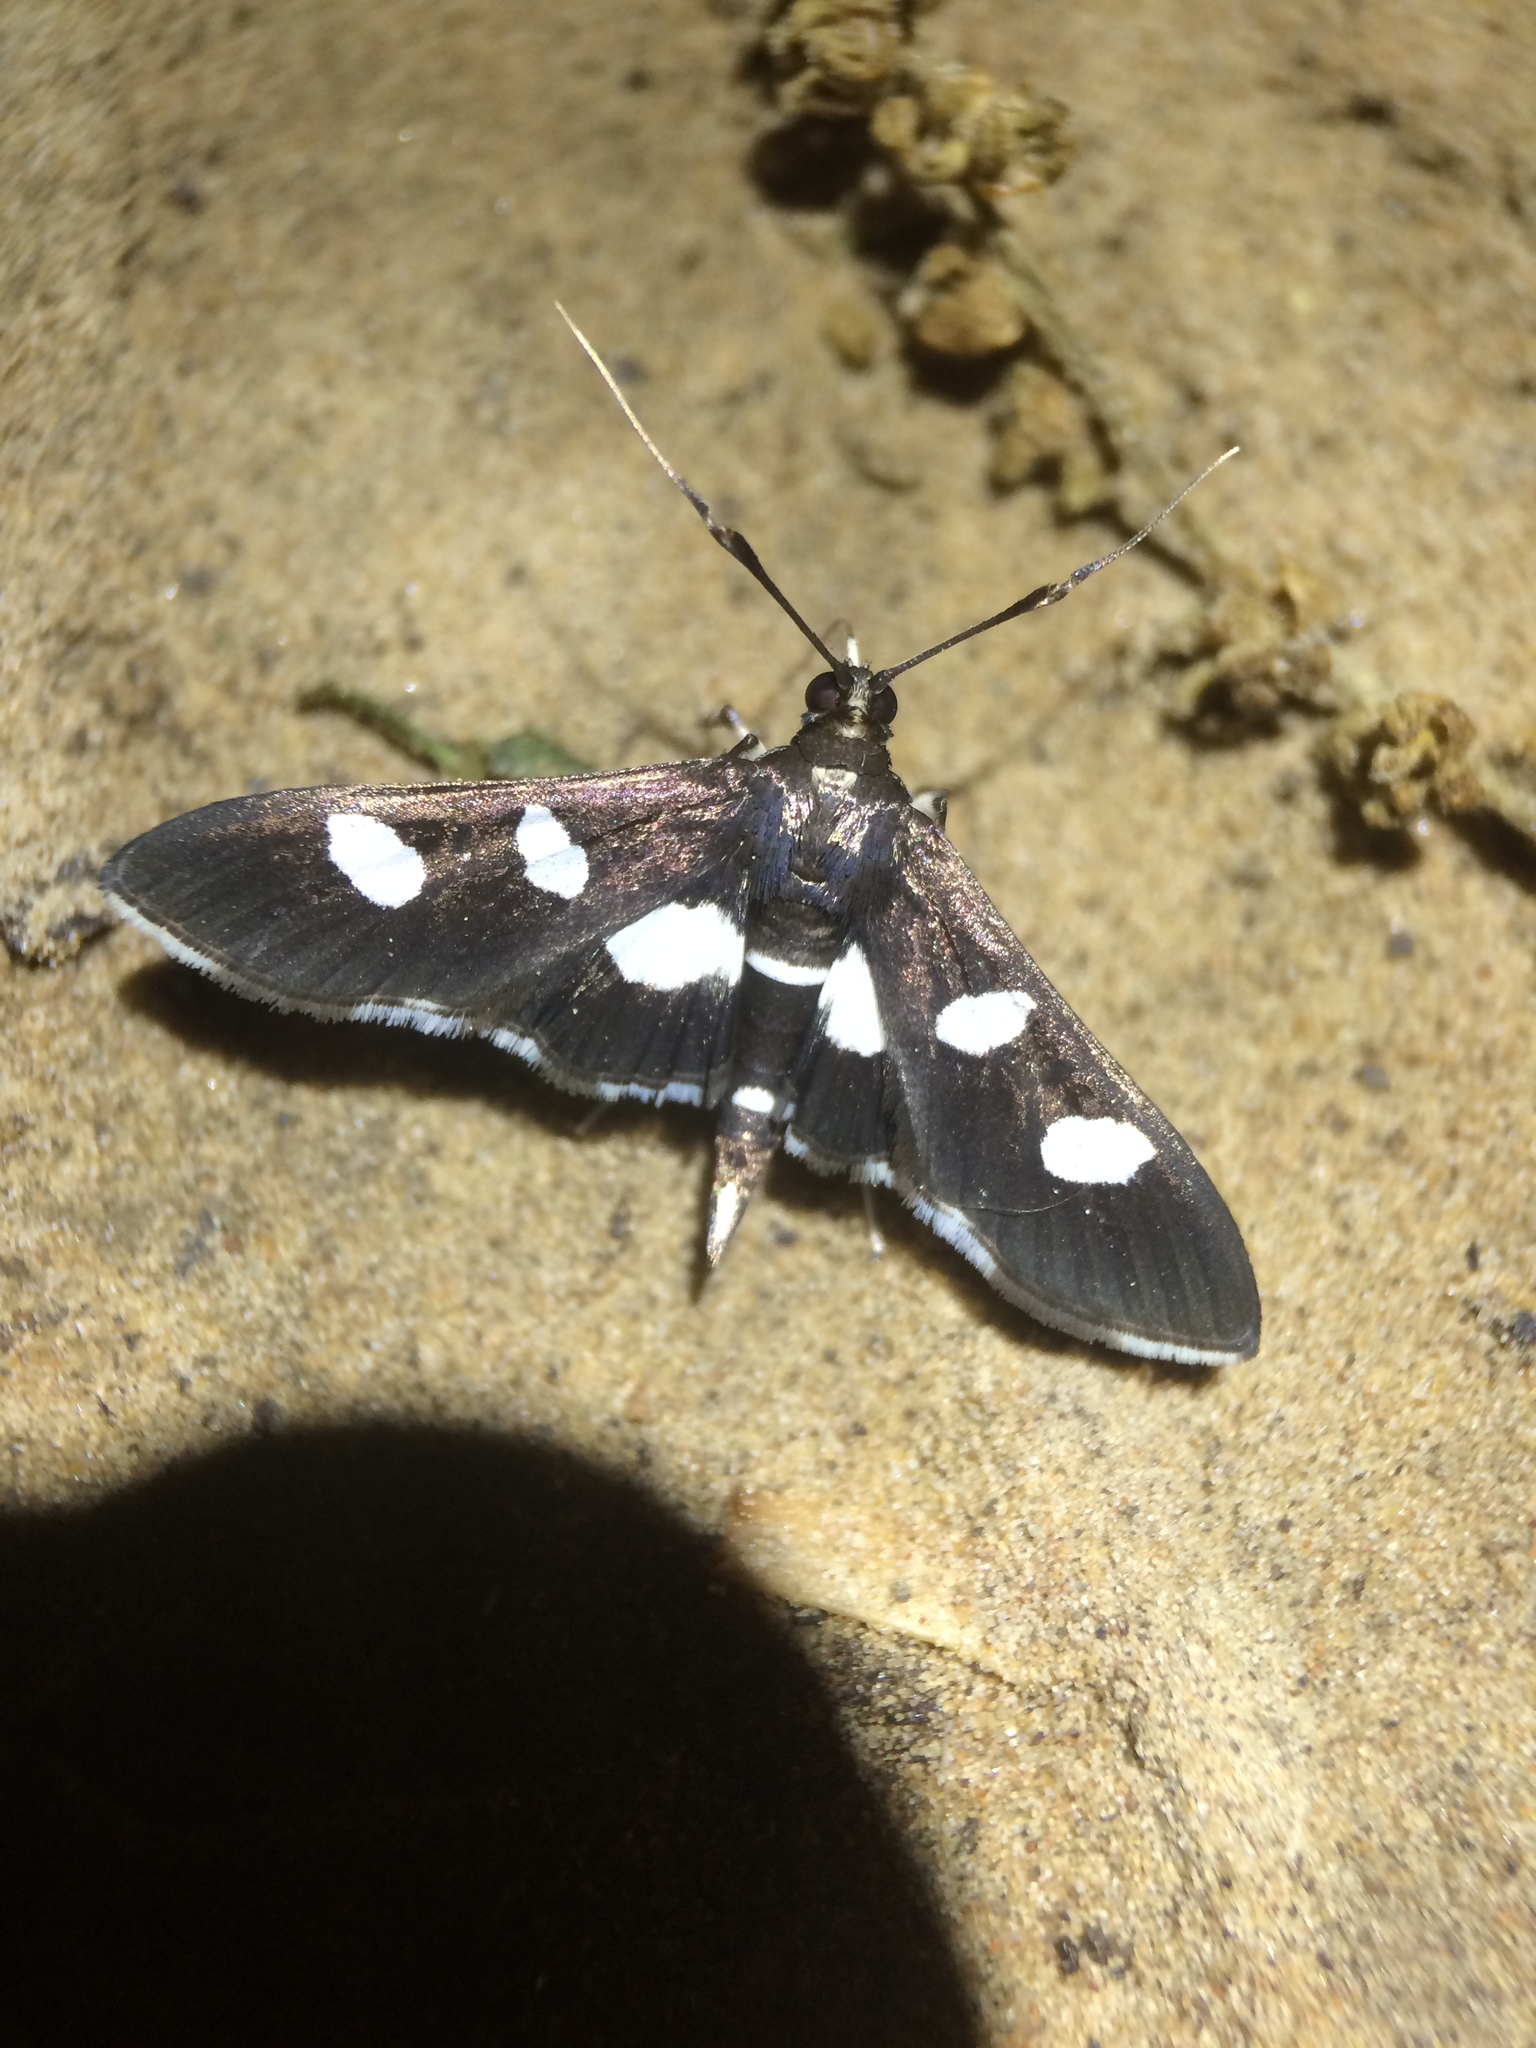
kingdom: Animalia
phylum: Arthropoda
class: Insecta
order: Lepidoptera
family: Crambidae
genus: Desmia
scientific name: Desmia
